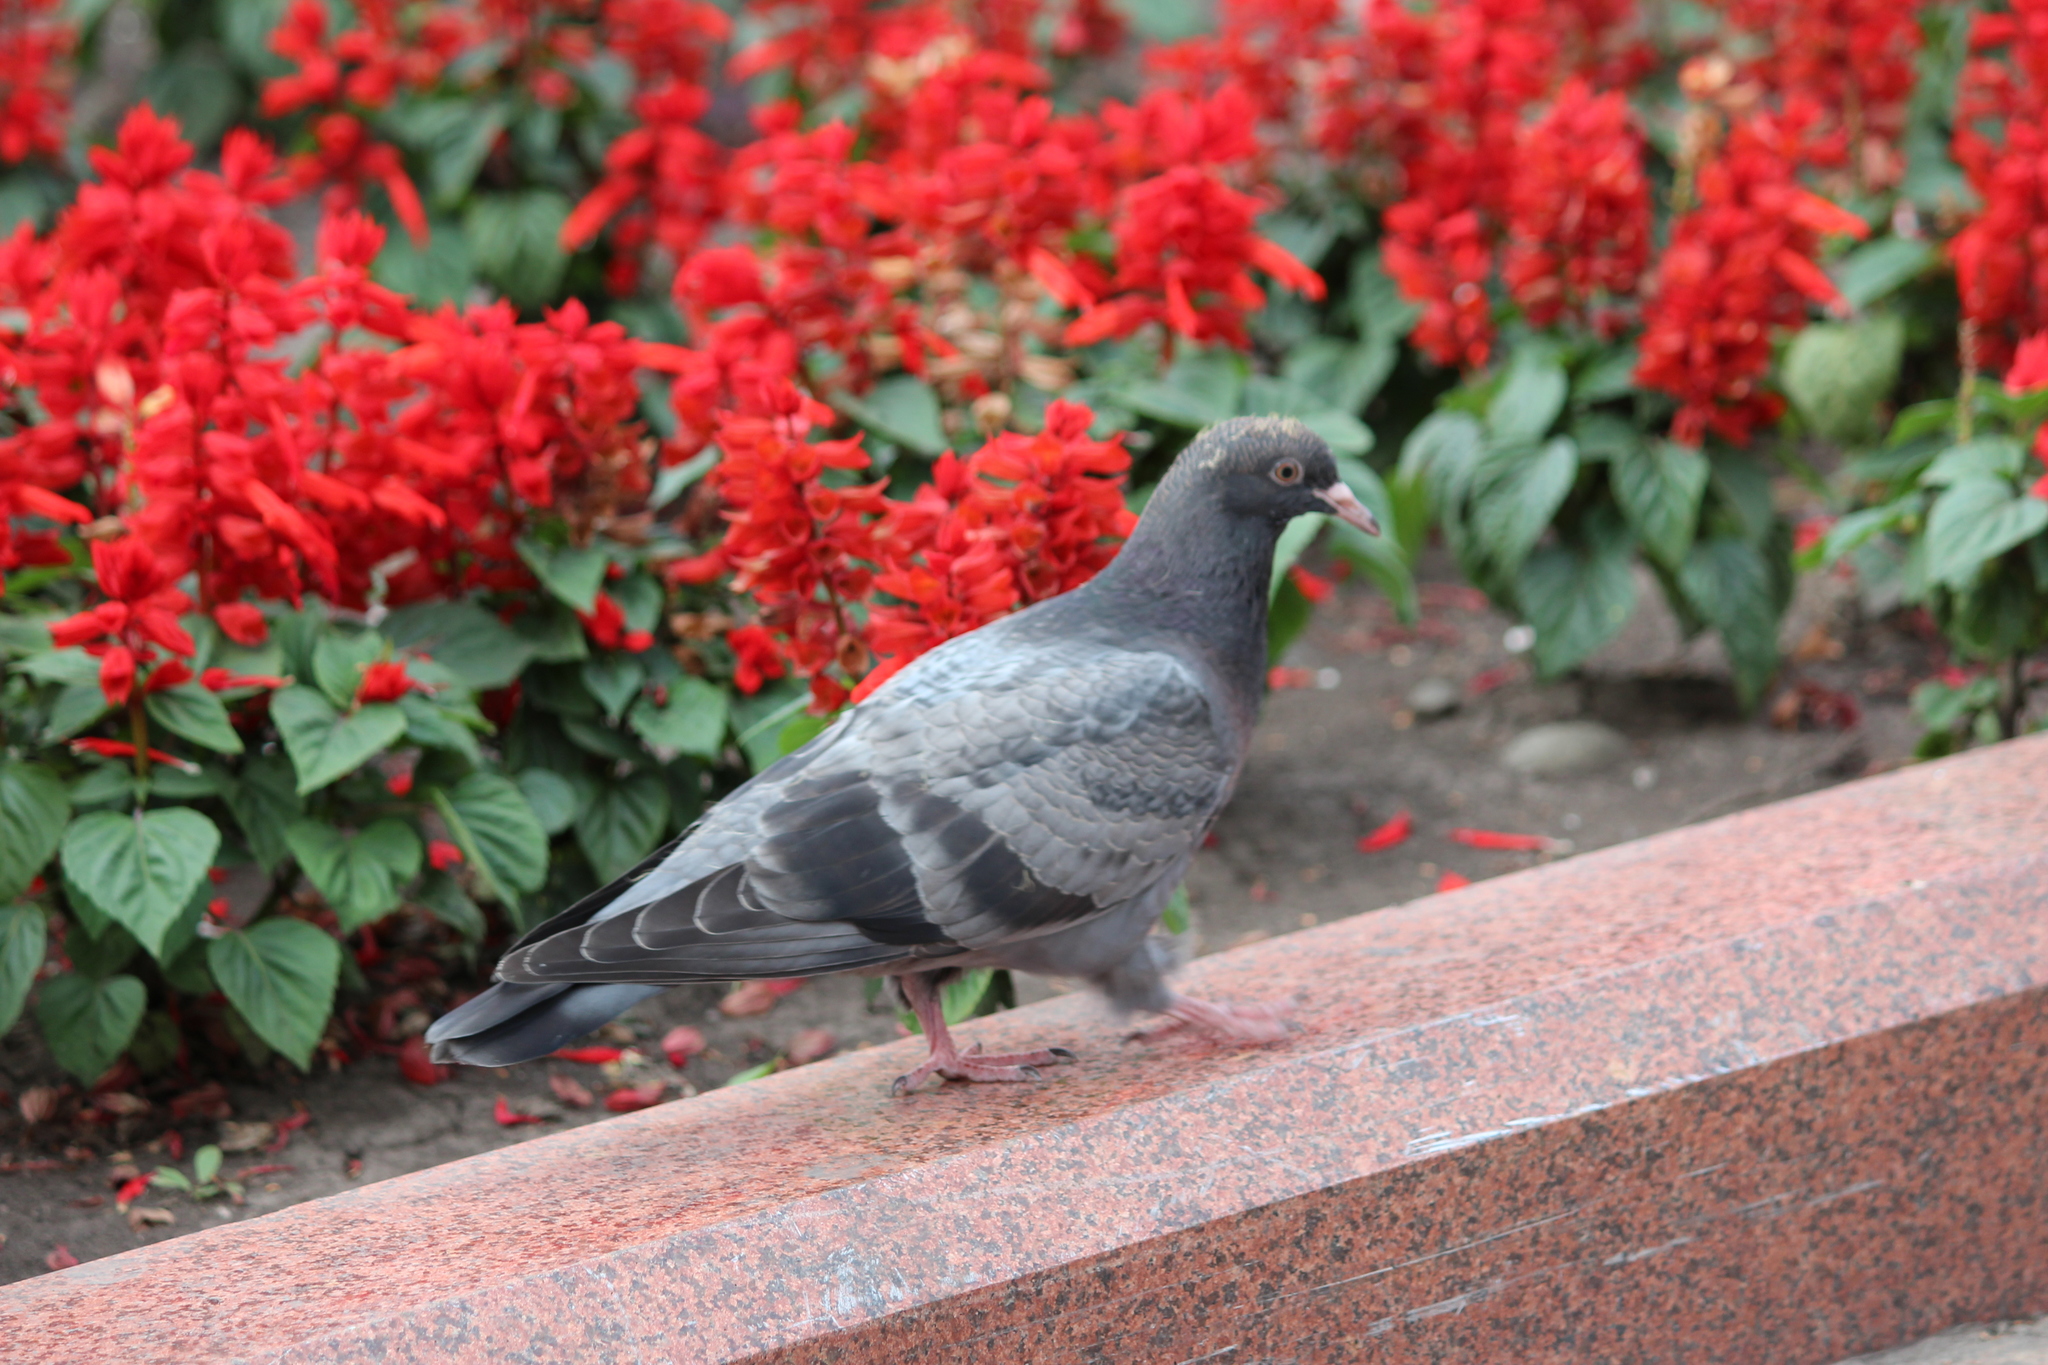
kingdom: Animalia
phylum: Chordata
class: Aves
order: Columbiformes
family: Columbidae
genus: Columba
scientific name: Columba livia
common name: Rock pigeon
